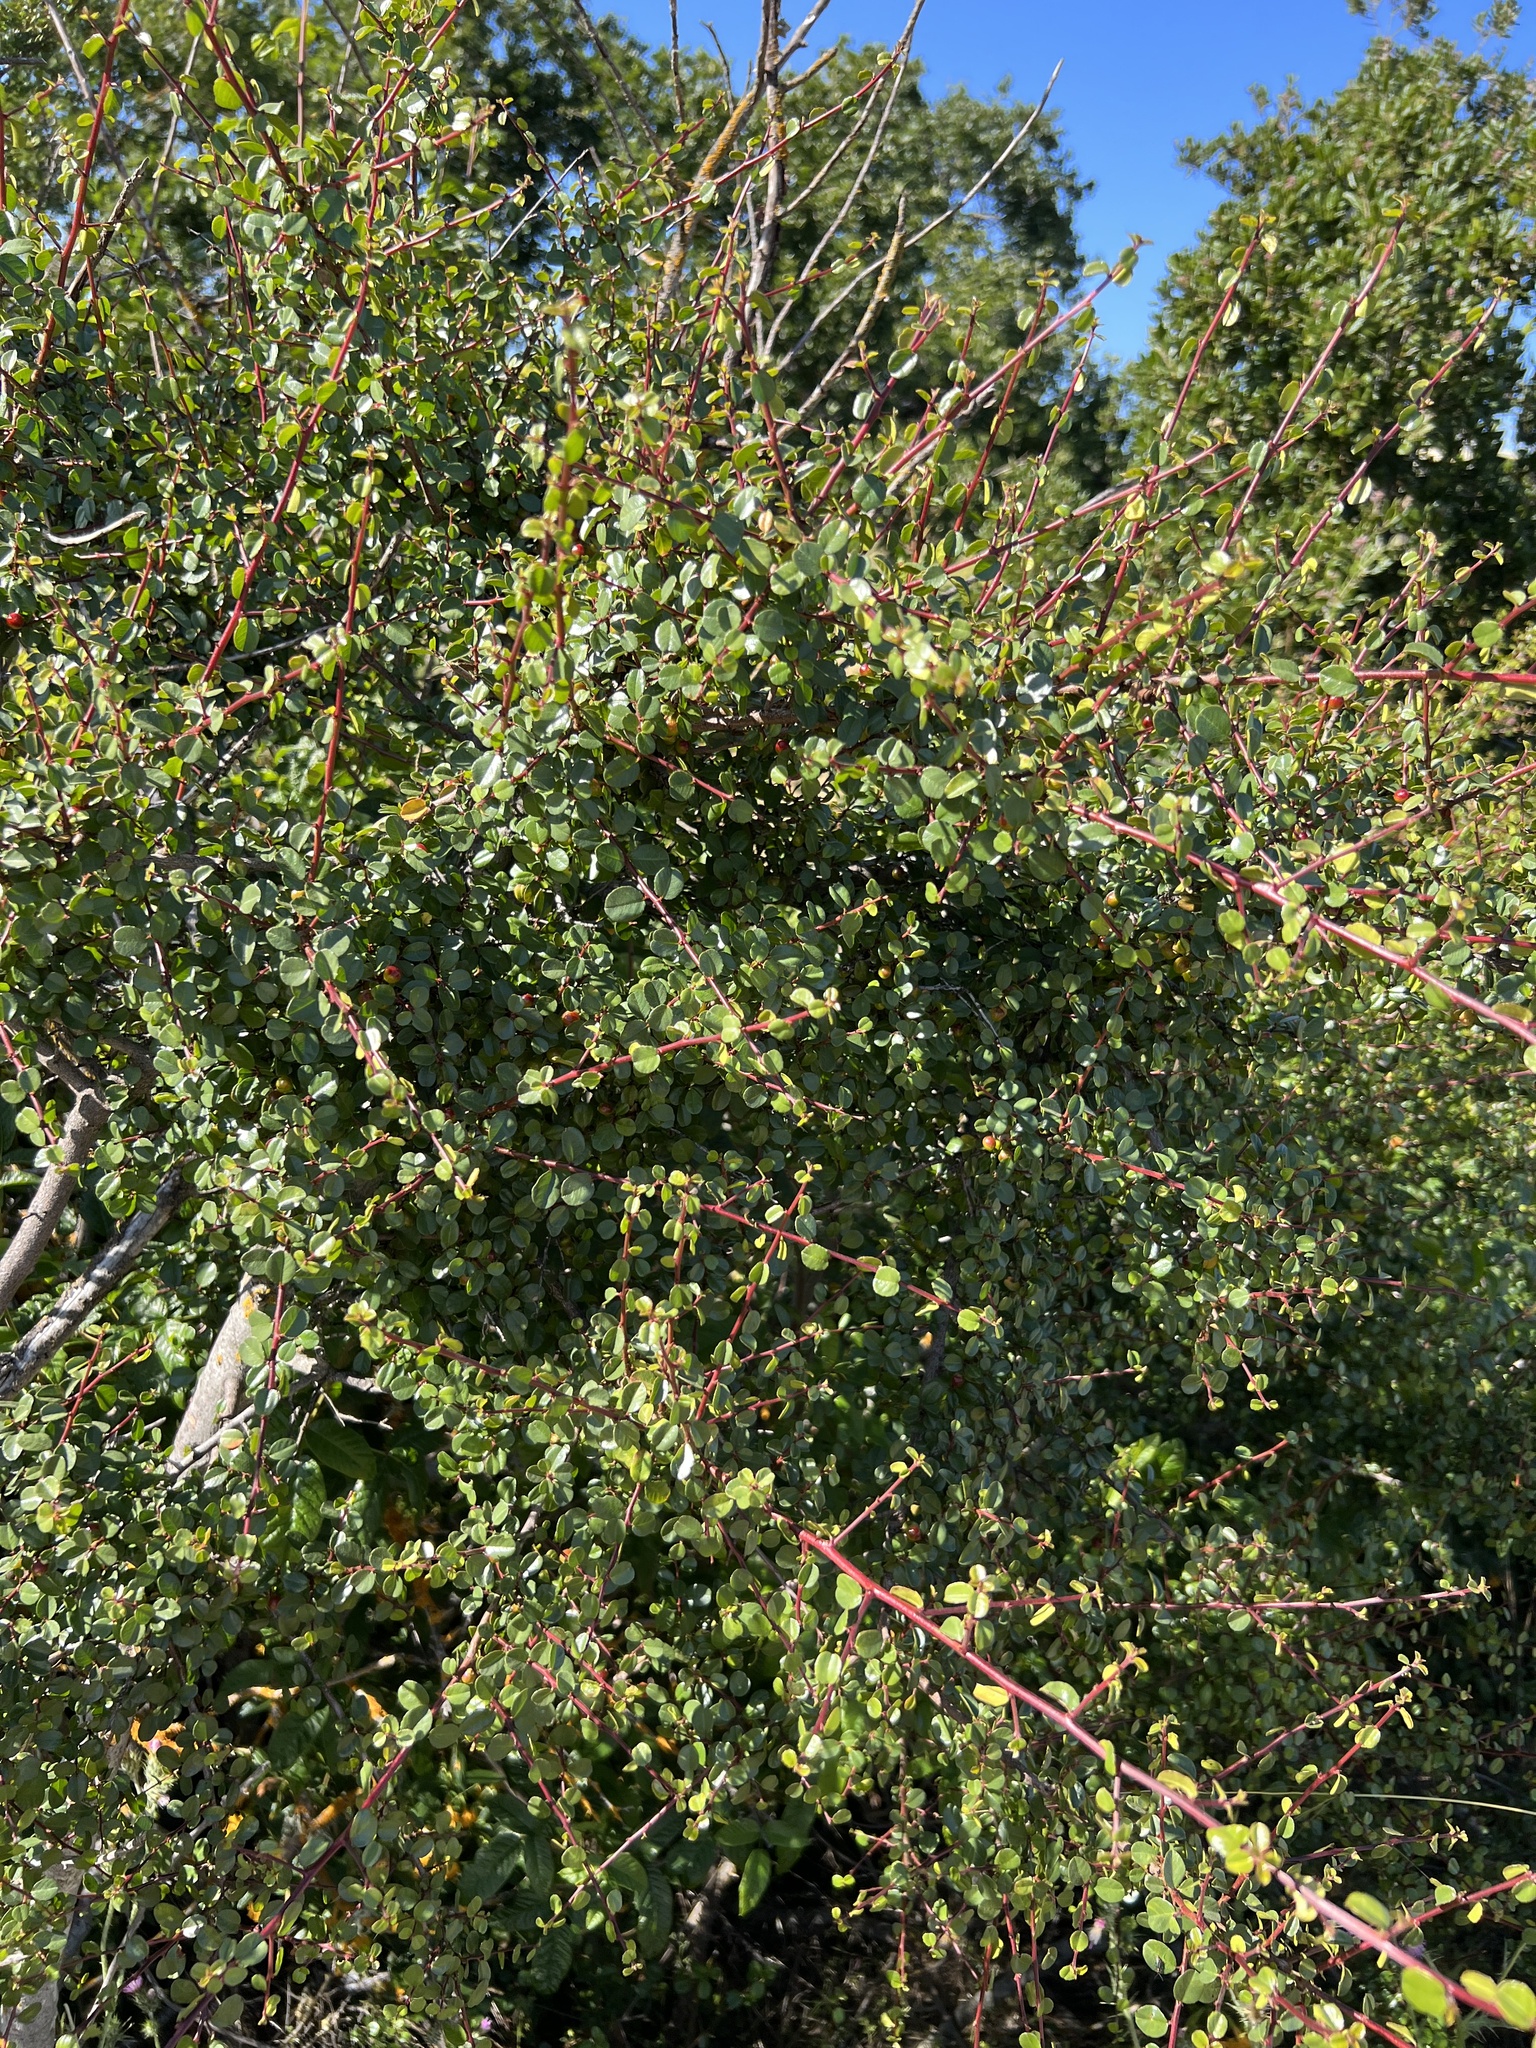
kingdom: Plantae
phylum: Tracheophyta
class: Magnoliopsida
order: Rosales
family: Rhamnaceae
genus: Endotropis
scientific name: Endotropis crocea
